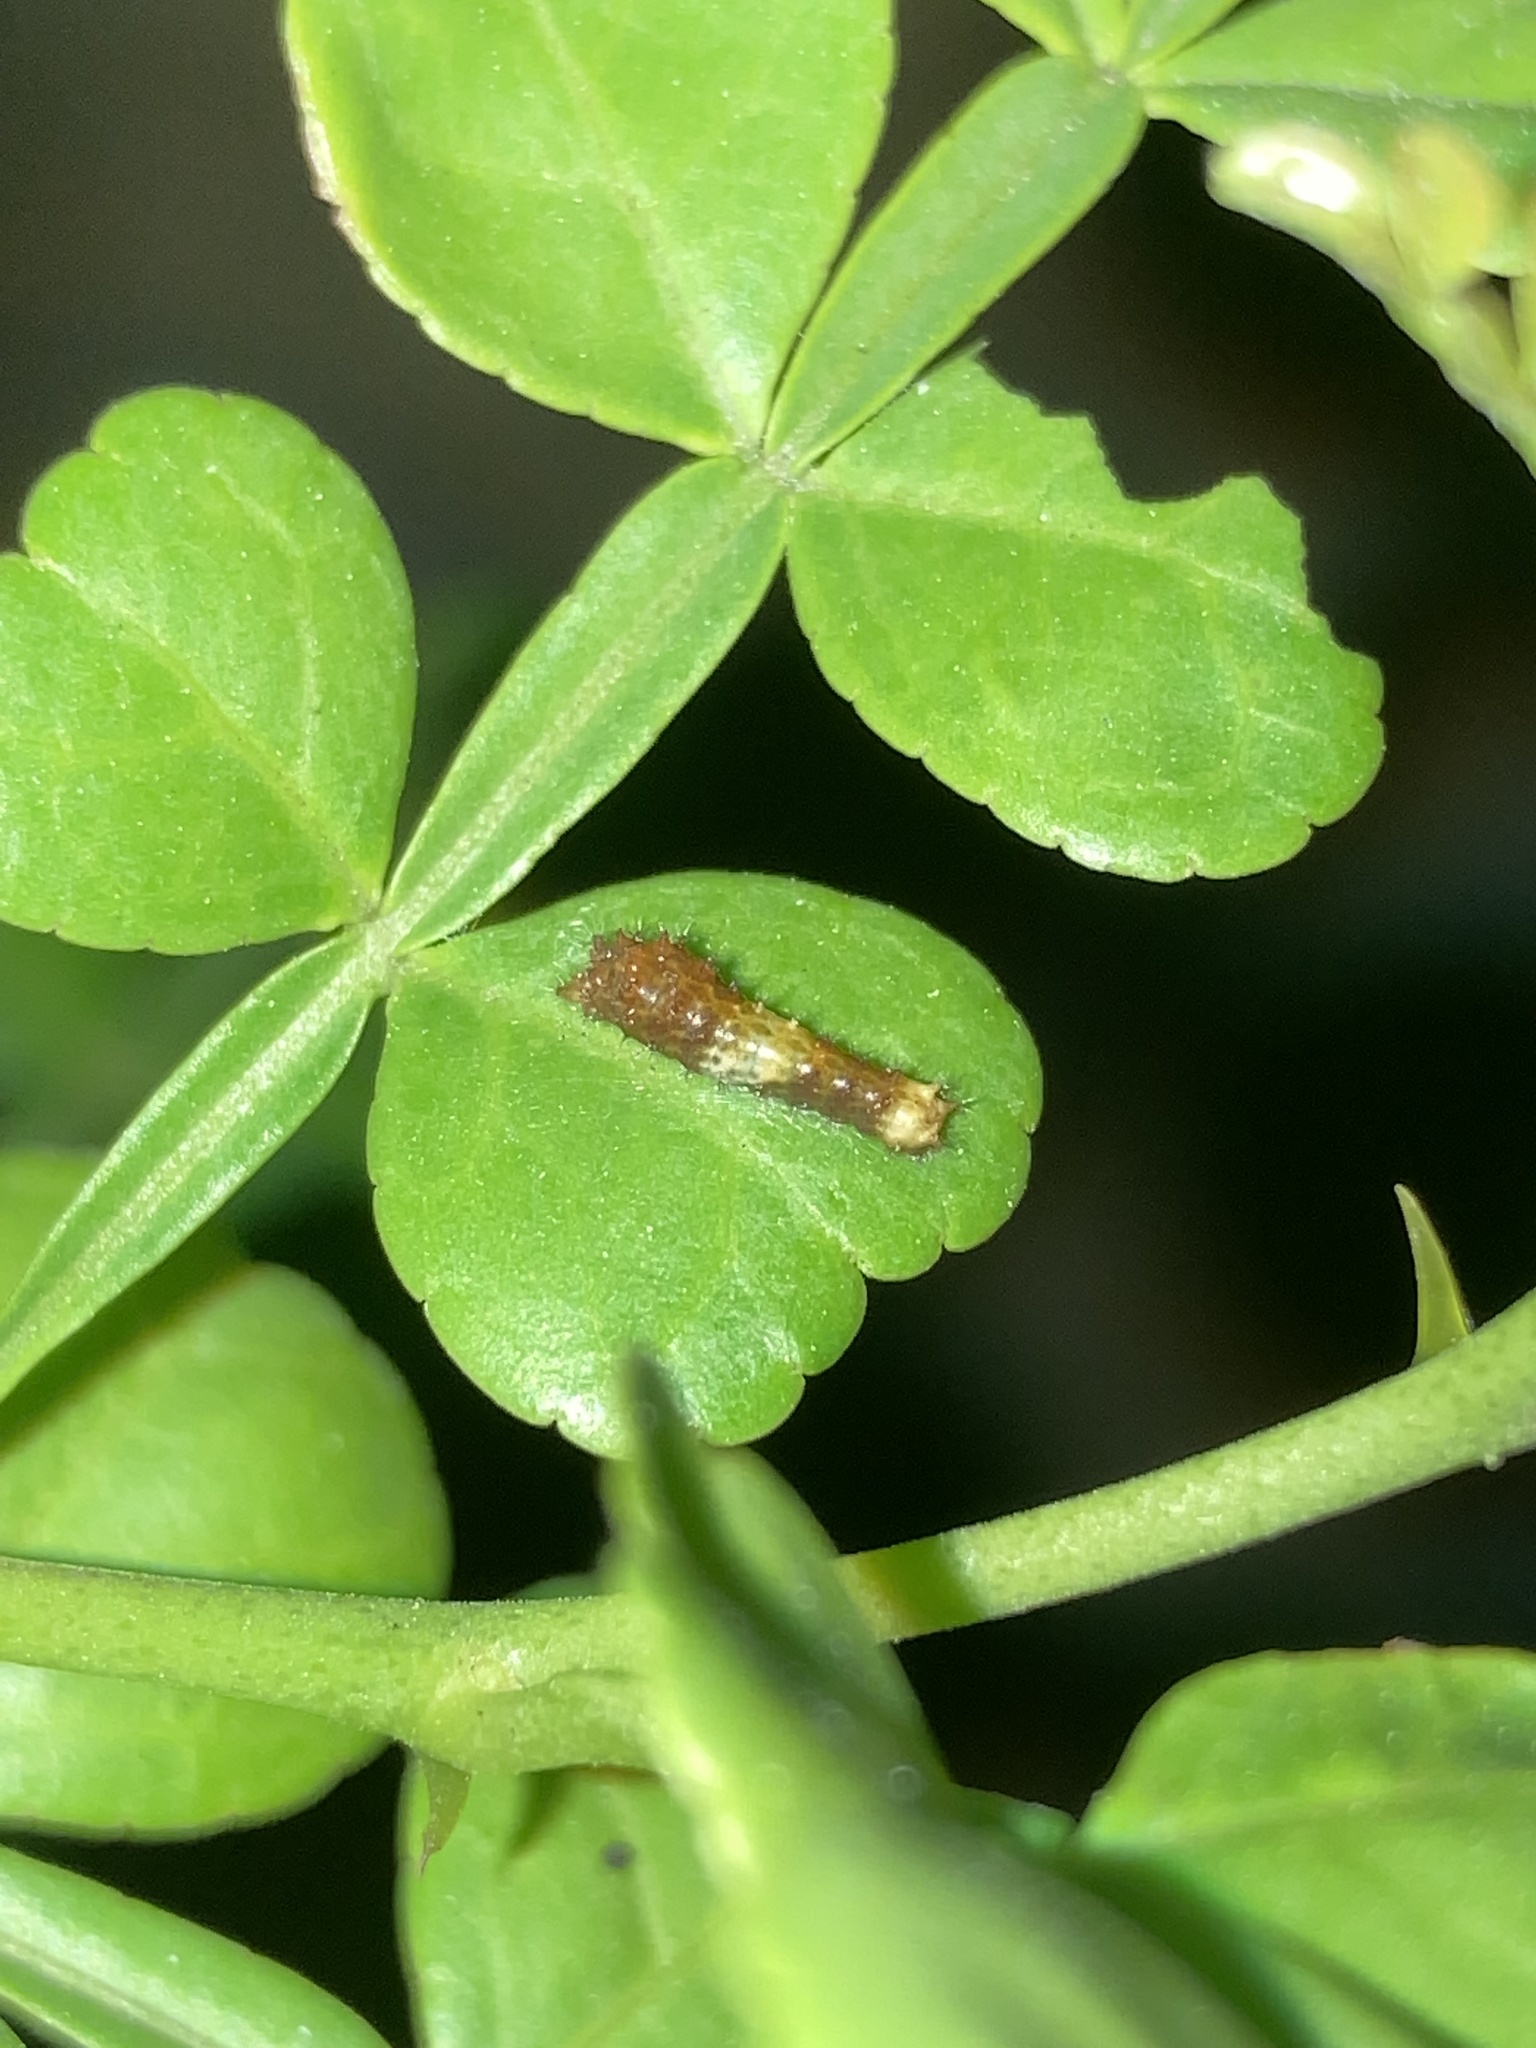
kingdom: Animalia
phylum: Arthropoda
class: Insecta
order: Lepidoptera
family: Papilionidae
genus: Papilio
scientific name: Papilio cresphontes
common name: Giant swallowtail
